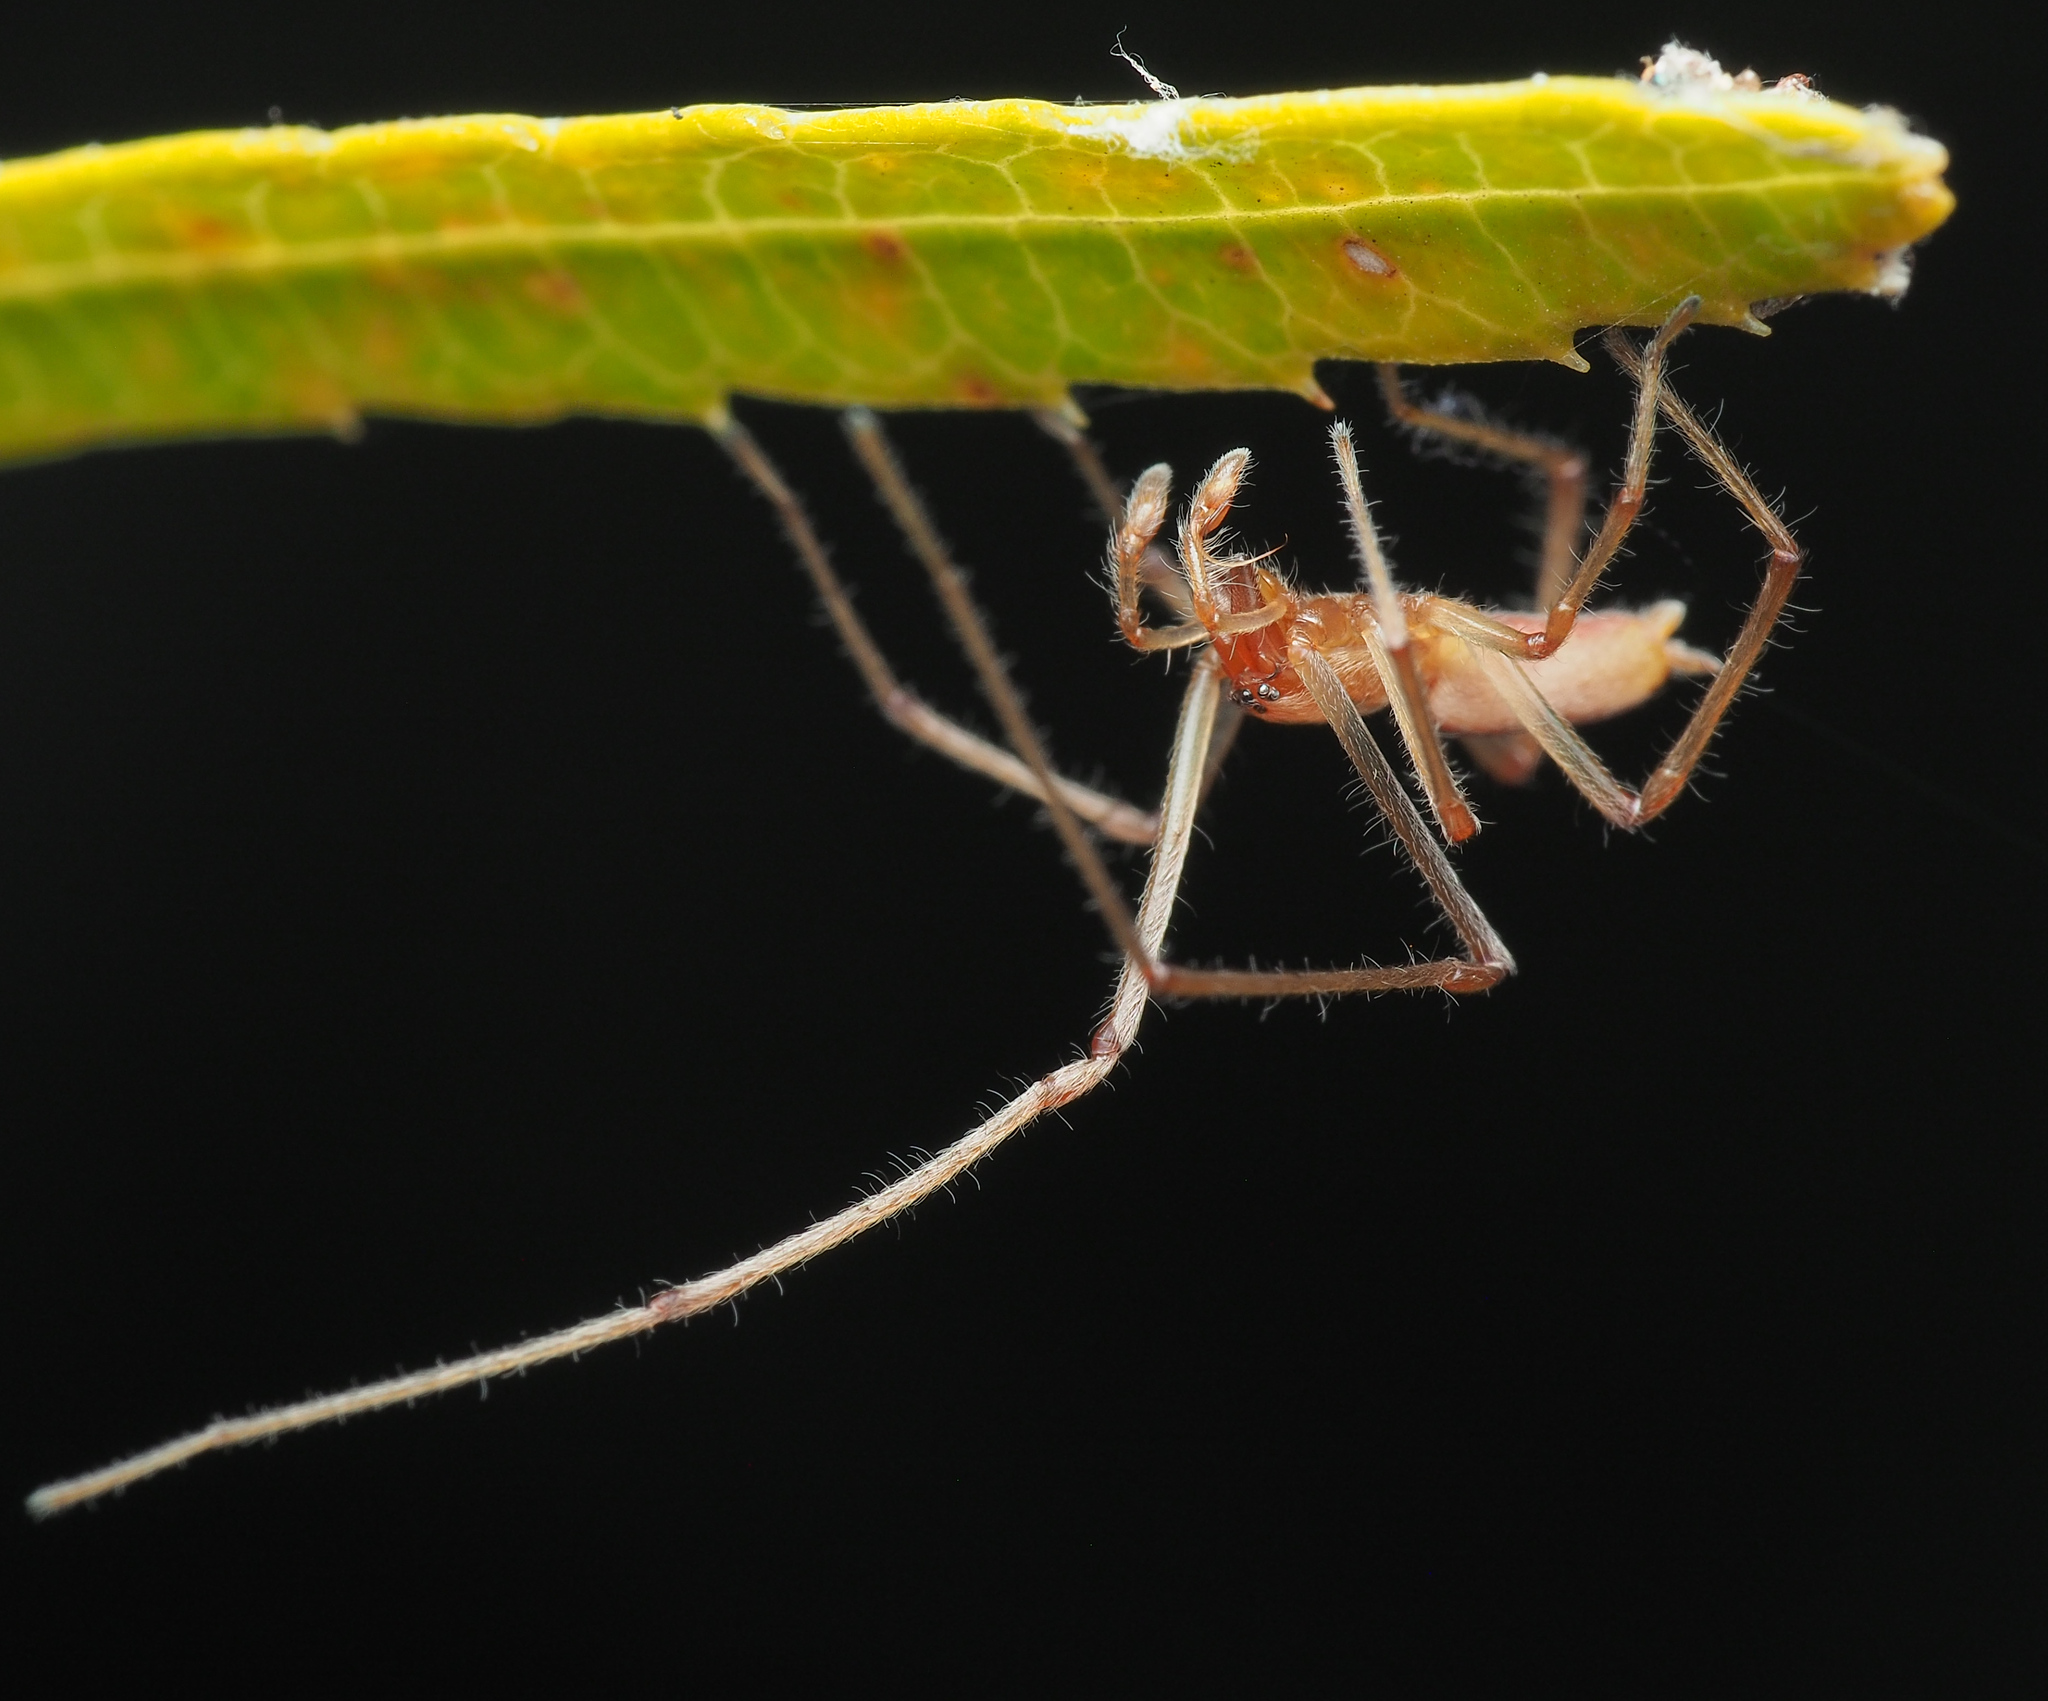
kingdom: Animalia
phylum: Arthropoda
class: Arachnida
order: Araneae
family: Cheiracanthiidae
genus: Cheiracanthium
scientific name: Cheiracanthium gracile
